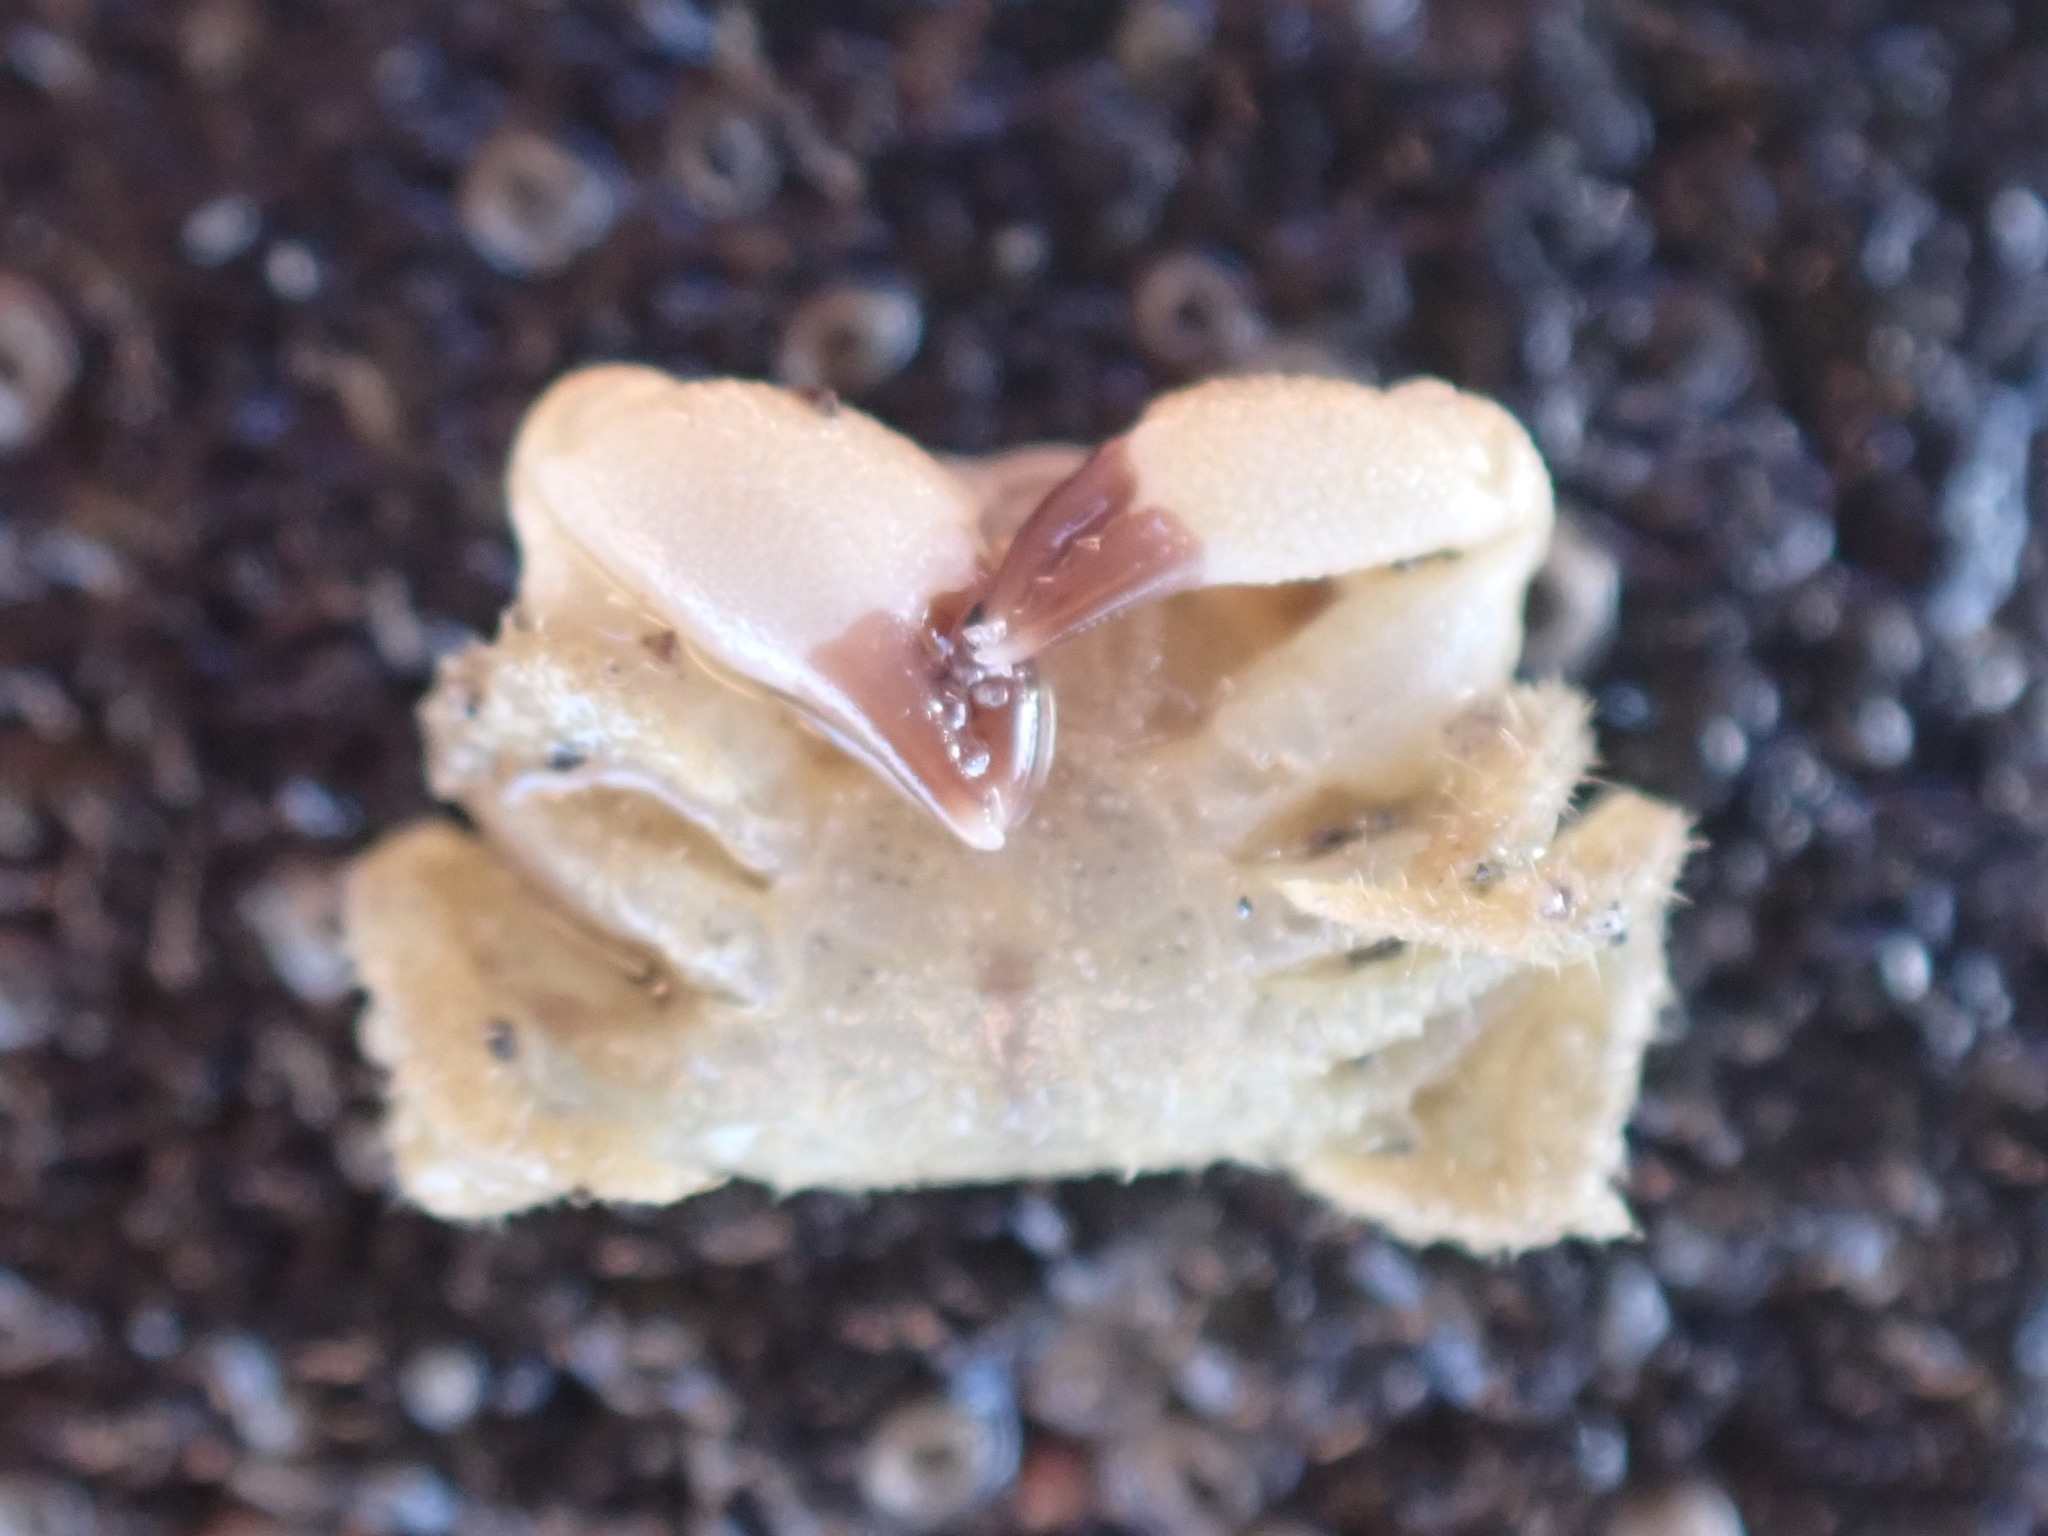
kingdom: Animalia
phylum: Arthropoda
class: Malacostraca
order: Decapoda
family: Oziidae
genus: Ozius
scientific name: Ozius deplanatus
